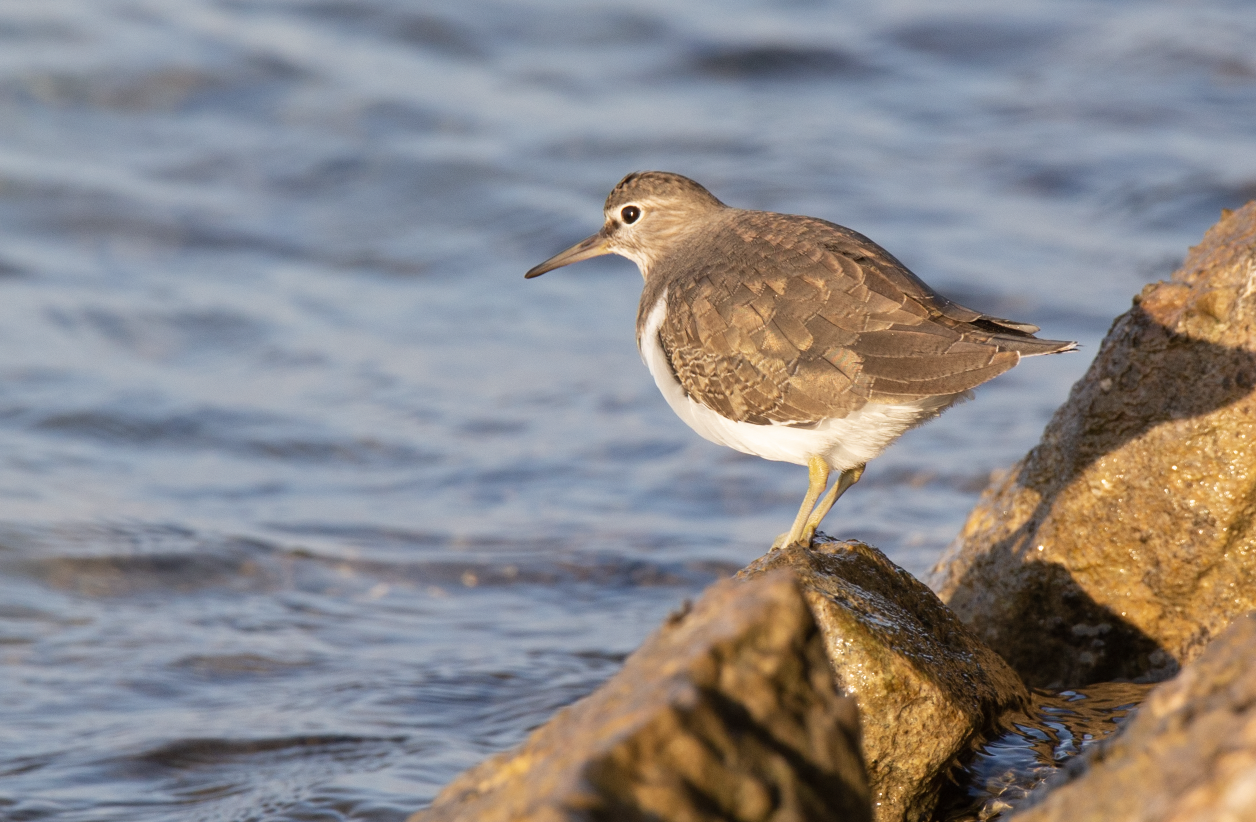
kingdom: Animalia
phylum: Chordata
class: Aves
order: Charadriiformes
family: Scolopacidae
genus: Actitis
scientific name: Actitis hypoleucos
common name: Common sandpiper
